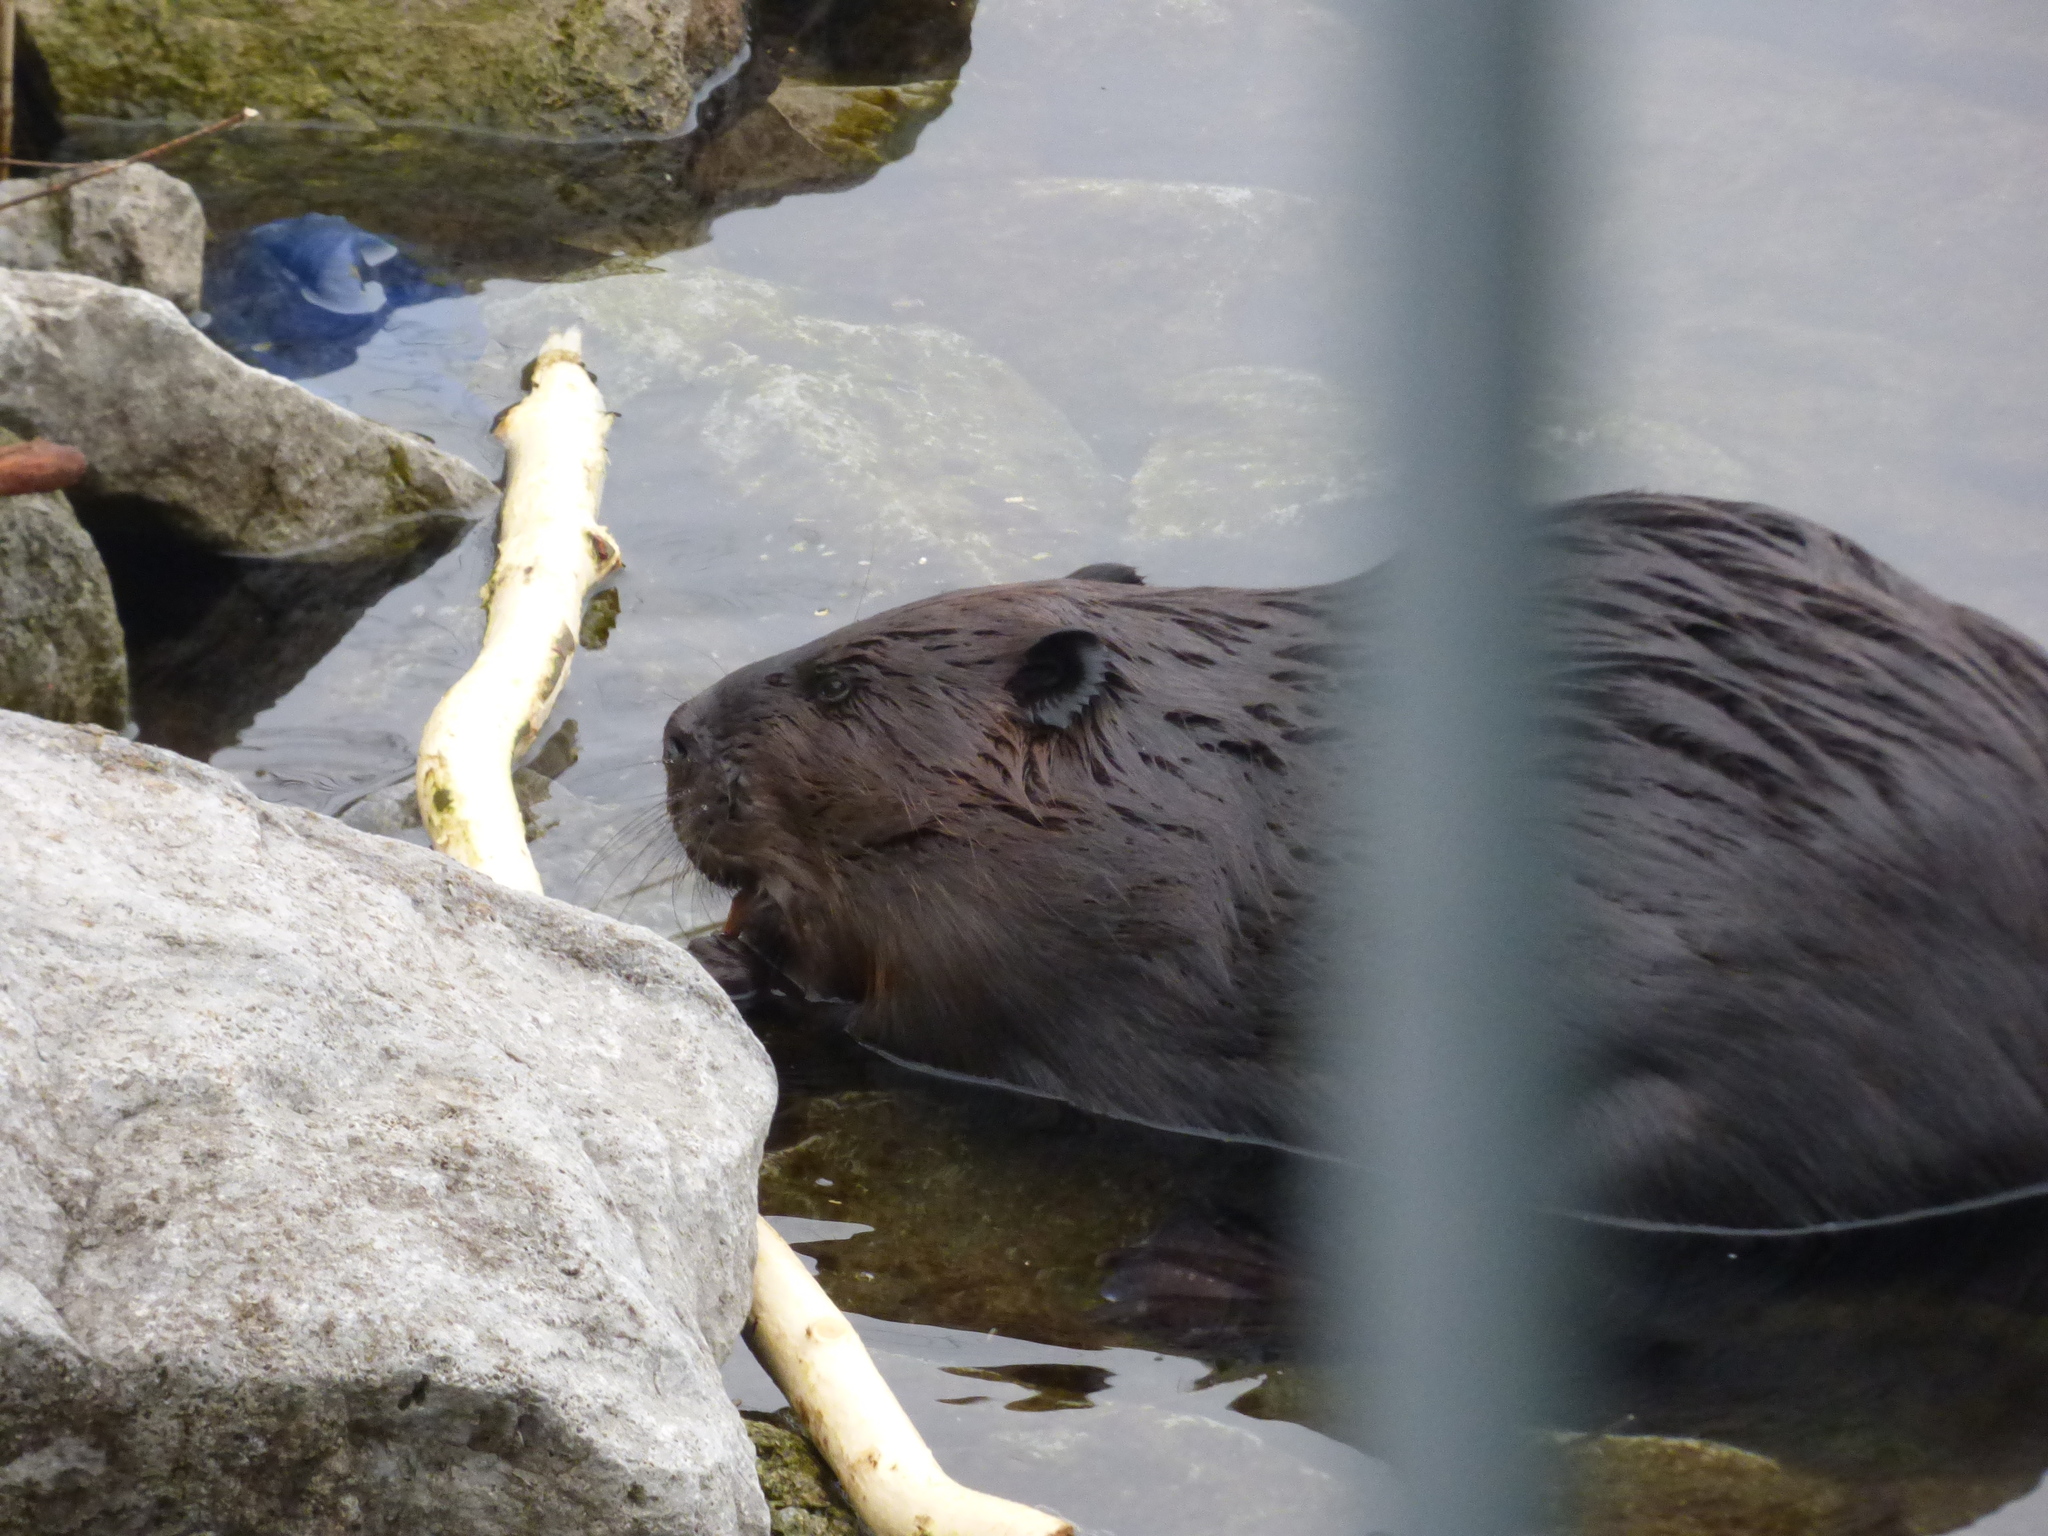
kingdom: Animalia
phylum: Chordata
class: Mammalia
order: Rodentia
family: Castoridae
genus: Castor
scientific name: Castor canadensis
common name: American beaver
